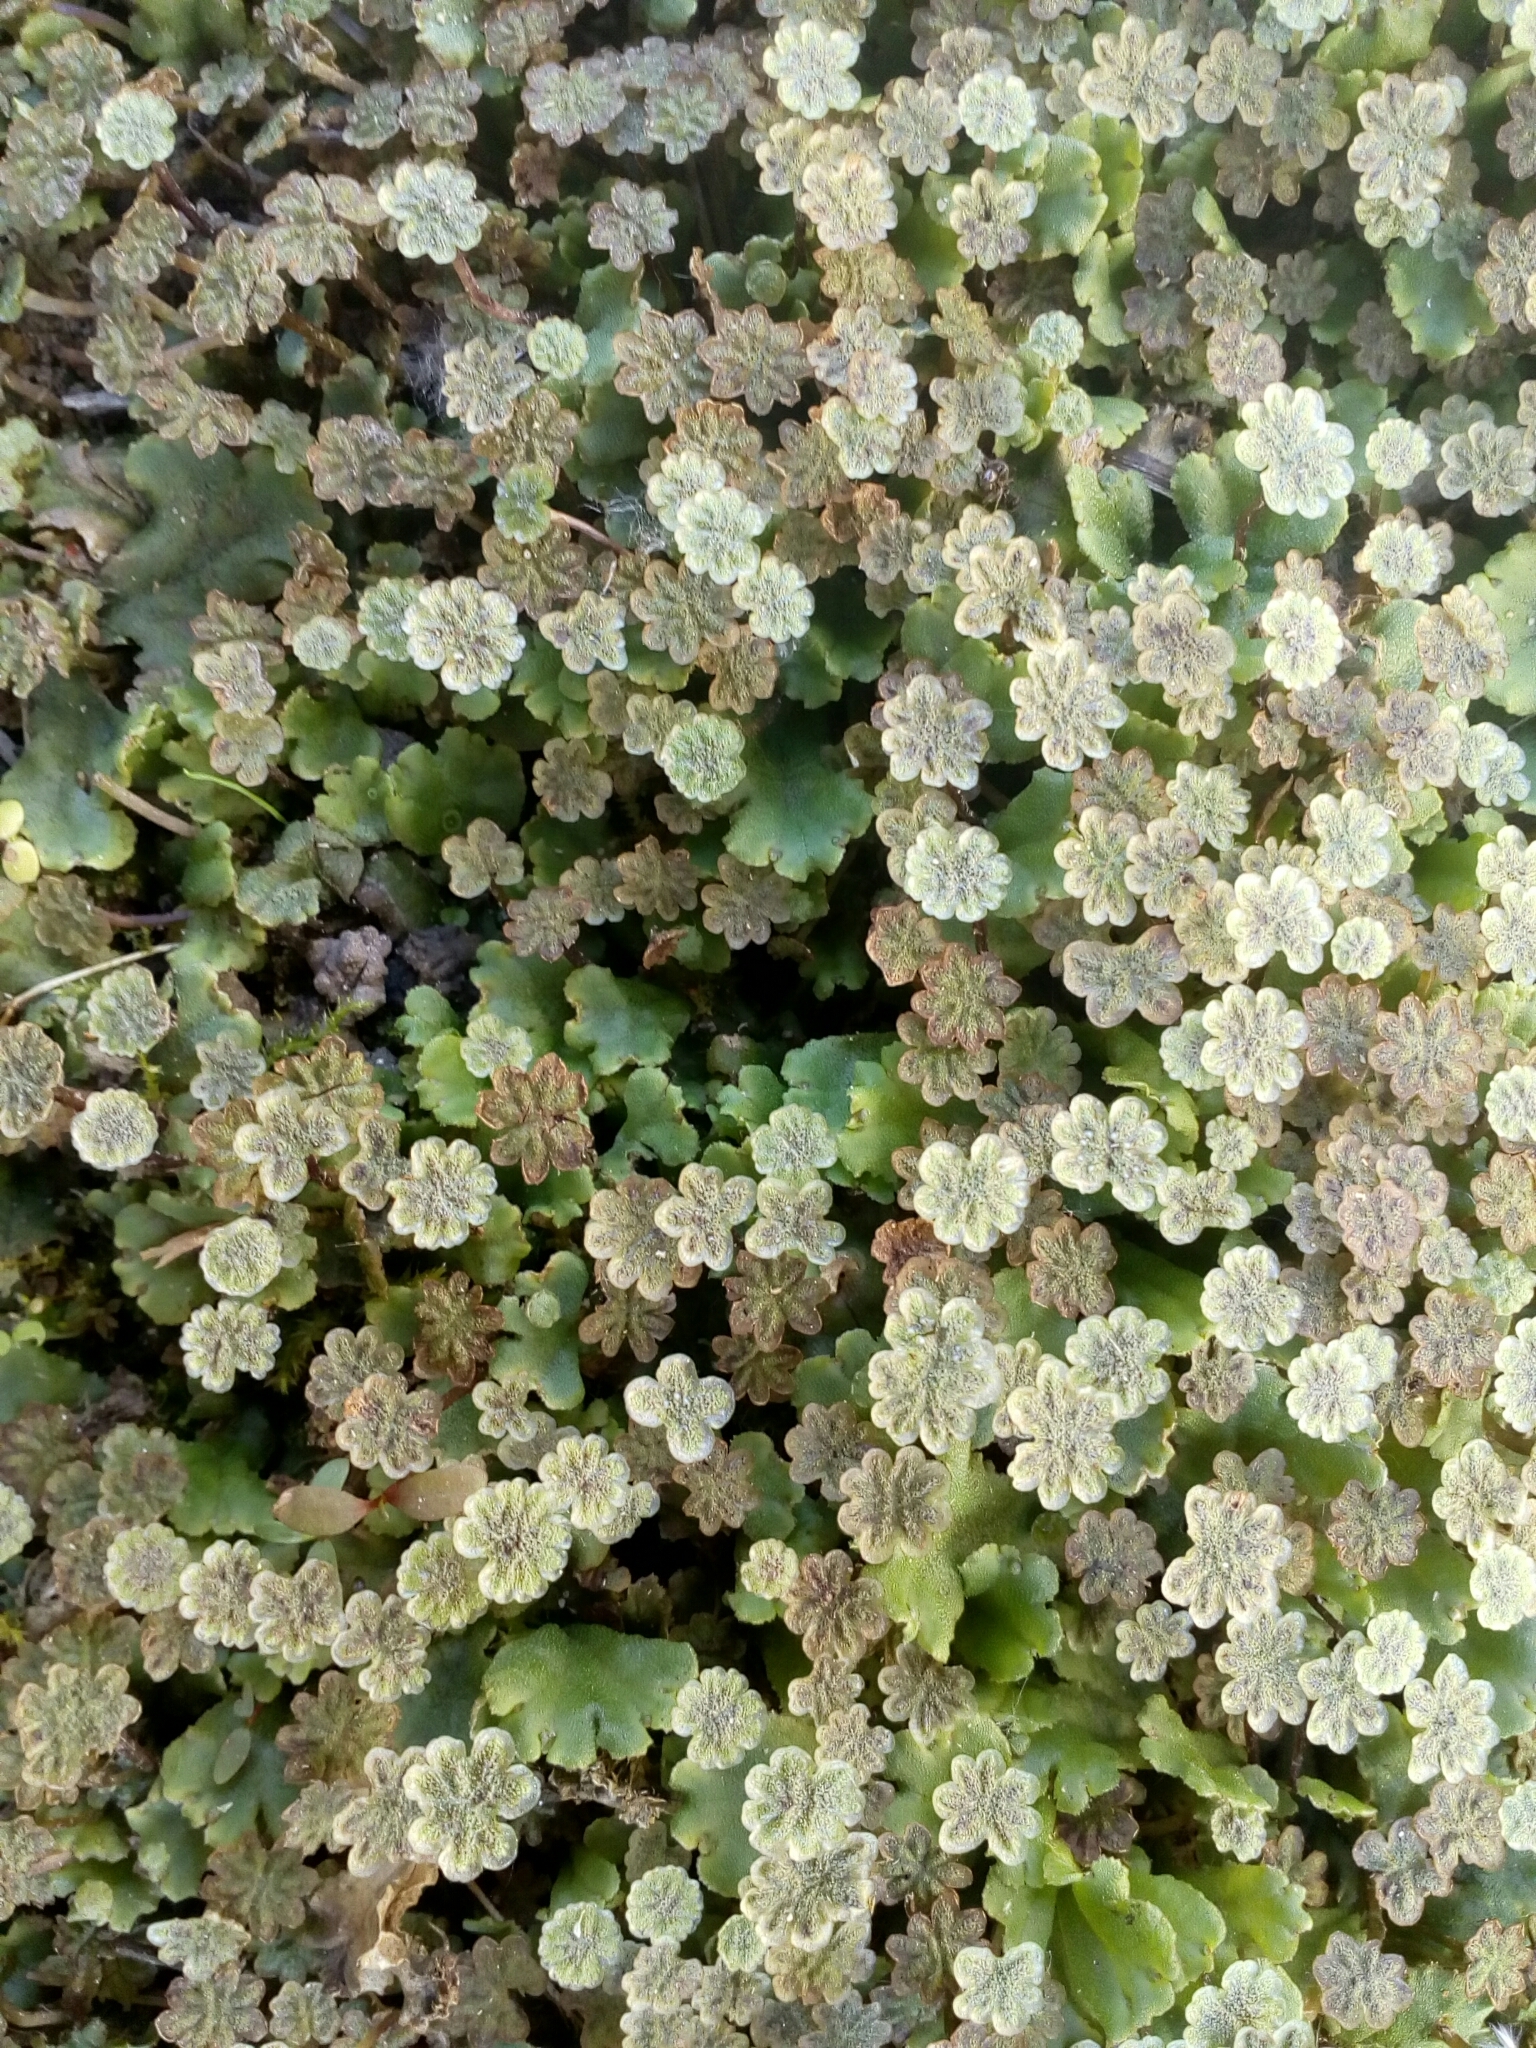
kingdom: Plantae
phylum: Marchantiophyta
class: Marchantiopsida
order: Marchantiales
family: Marchantiaceae
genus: Marchantia
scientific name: Marchantia polymorpha
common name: Common liverwort
